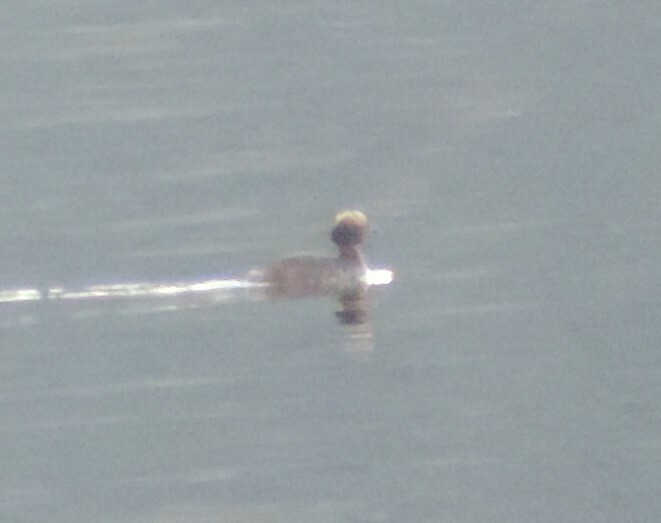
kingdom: Animalia
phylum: Chordata
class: Aves
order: Podicipediformes
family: Podicipedidae
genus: Podiceps
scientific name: Podiceps auritus
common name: Horned grebe
